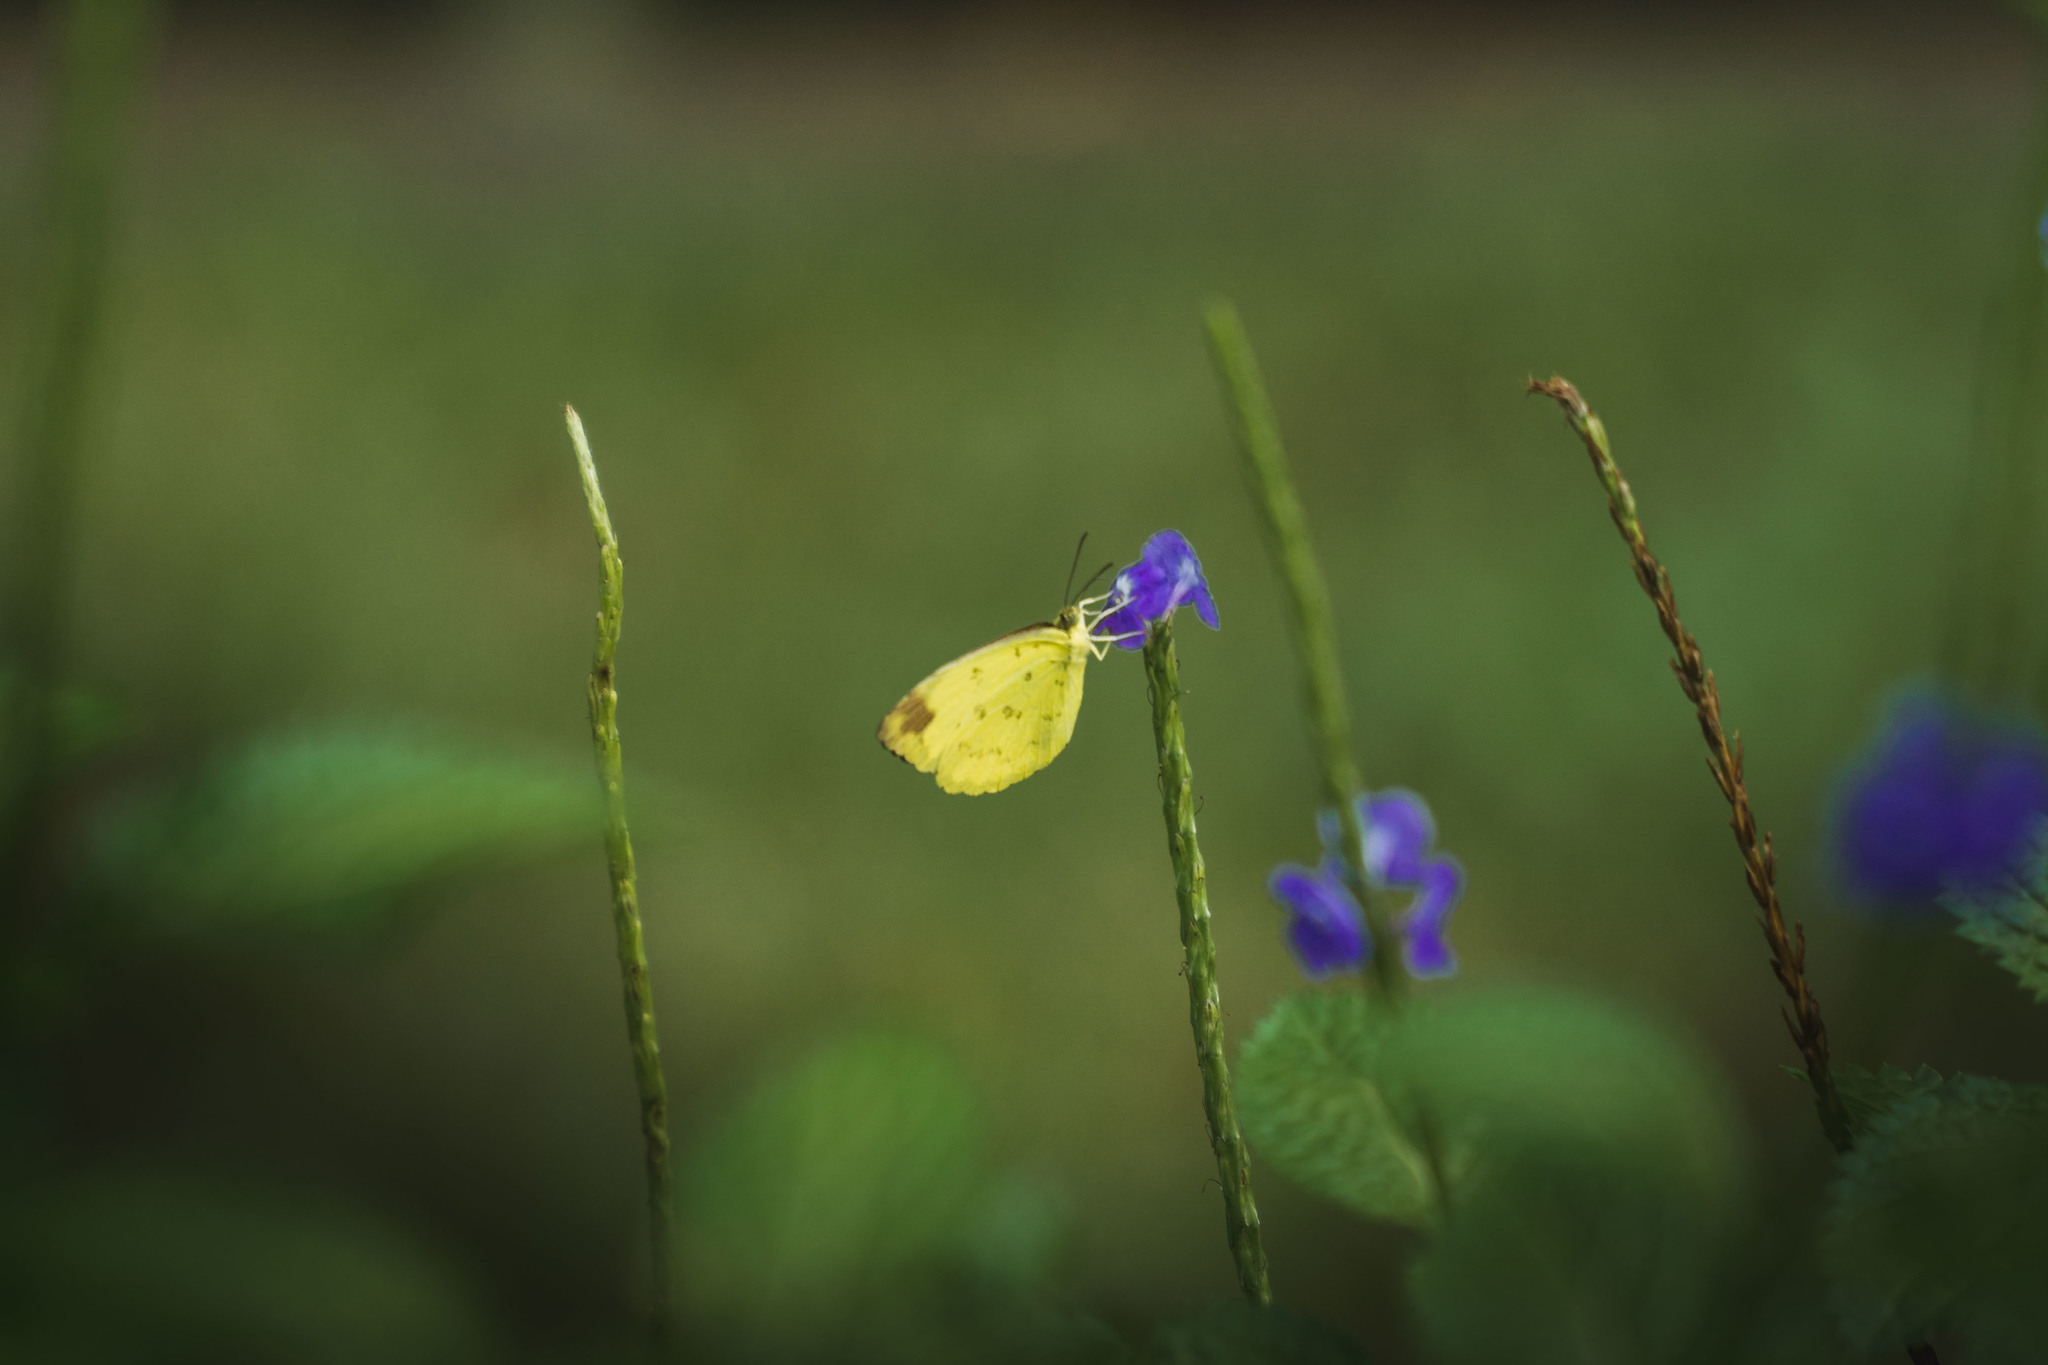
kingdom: Animalia
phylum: Arthropoda
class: Insecta
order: Lepidoptera
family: Pieridae
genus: Eurema
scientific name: Eurema simulatrix
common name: Hill grass yellow
